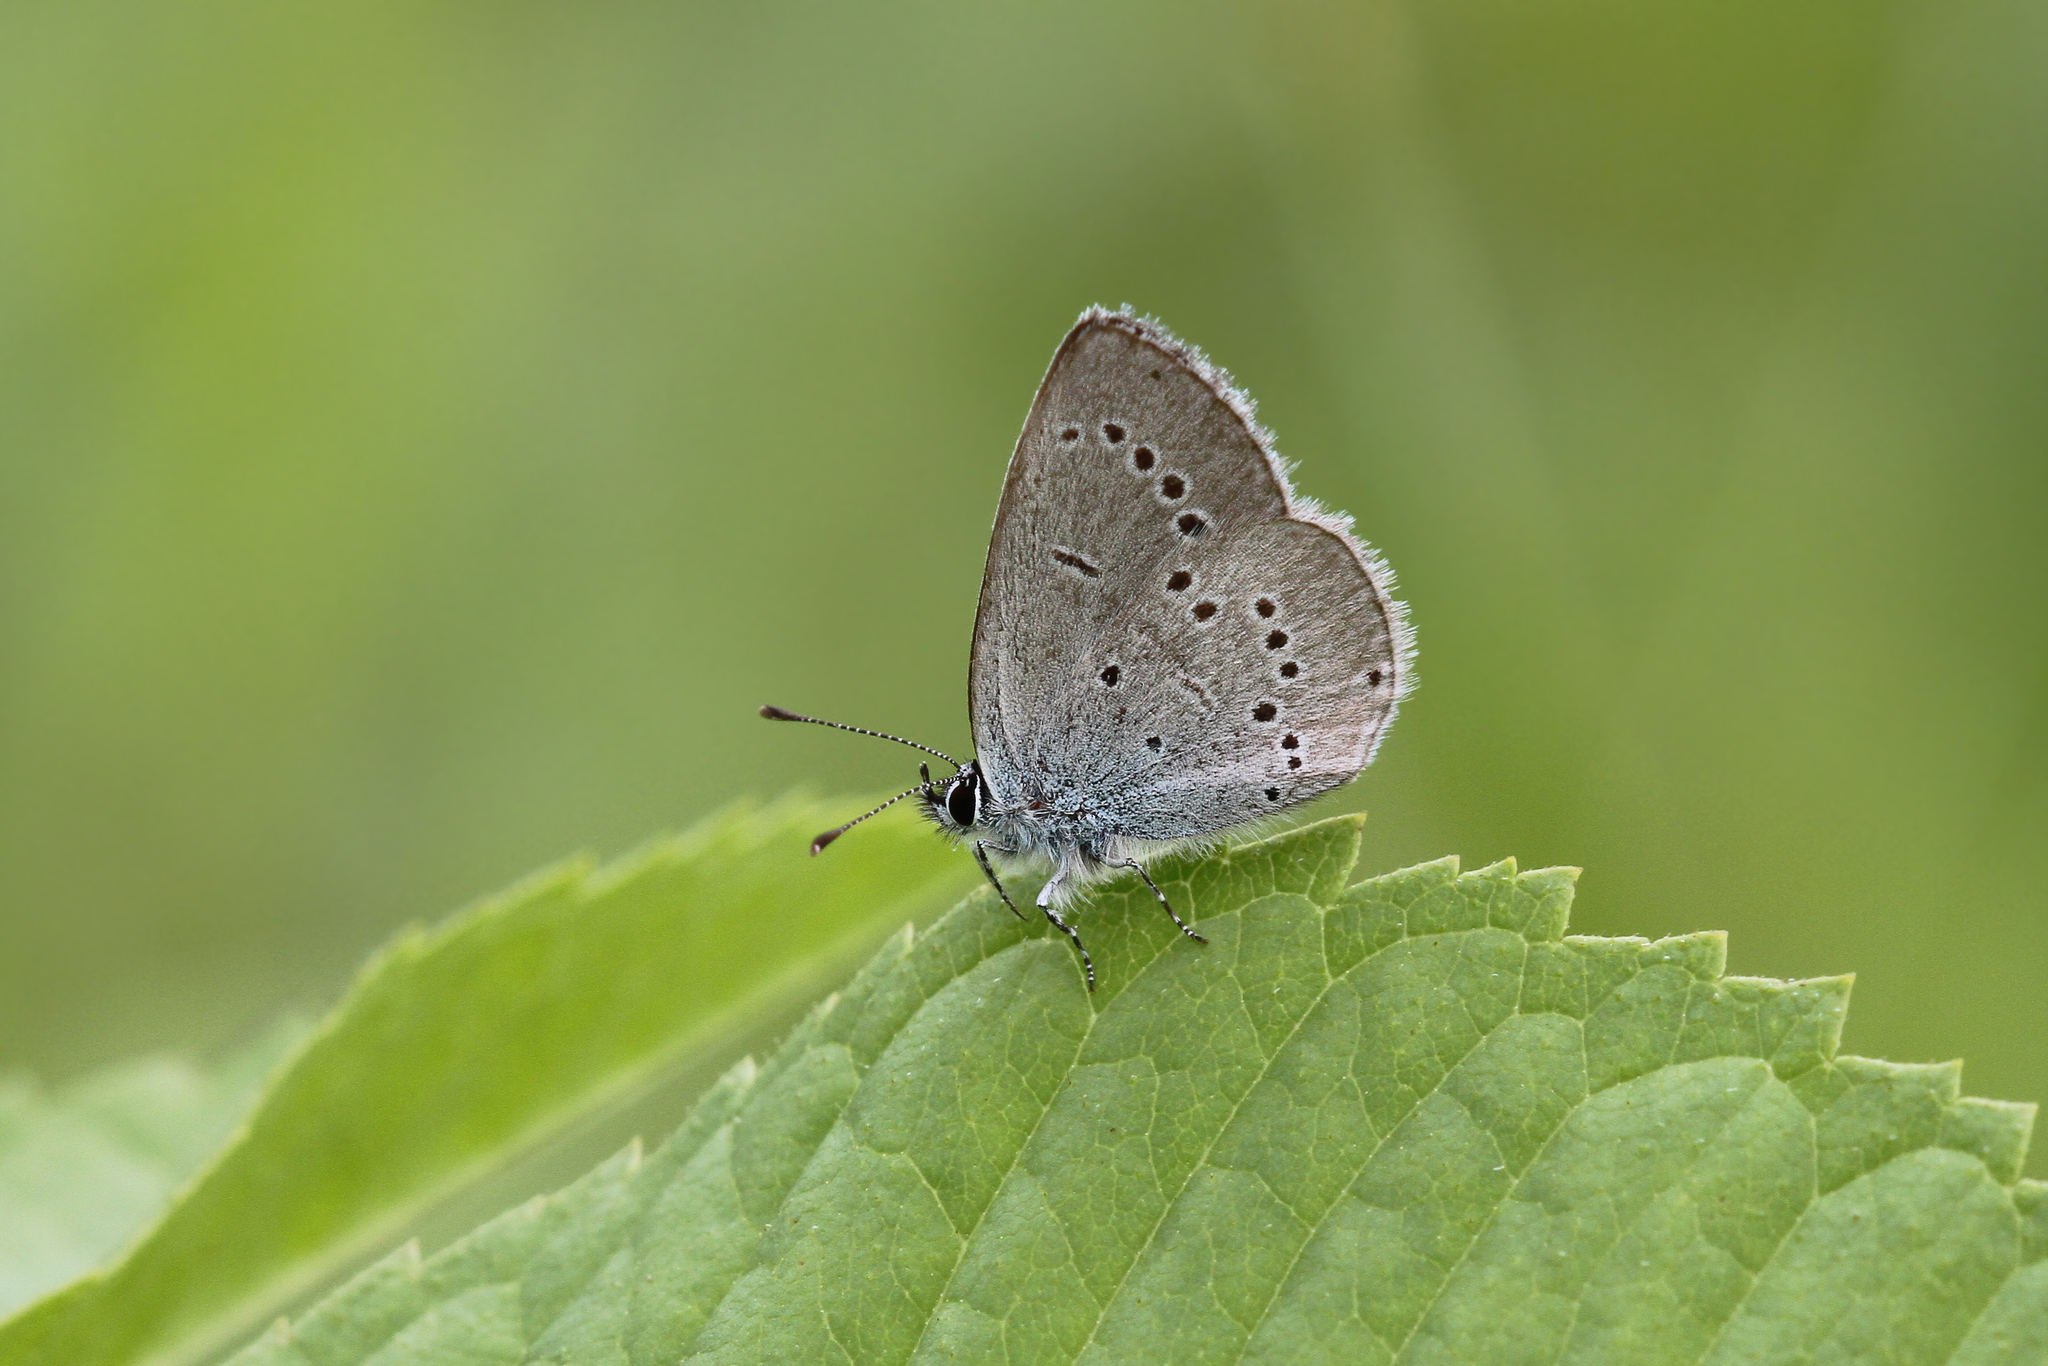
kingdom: Animalia
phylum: Arthropoda
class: Insecta
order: Lepidoptera
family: Lycaenidae
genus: Cupido
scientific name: Cupido minimus
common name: Small blue
